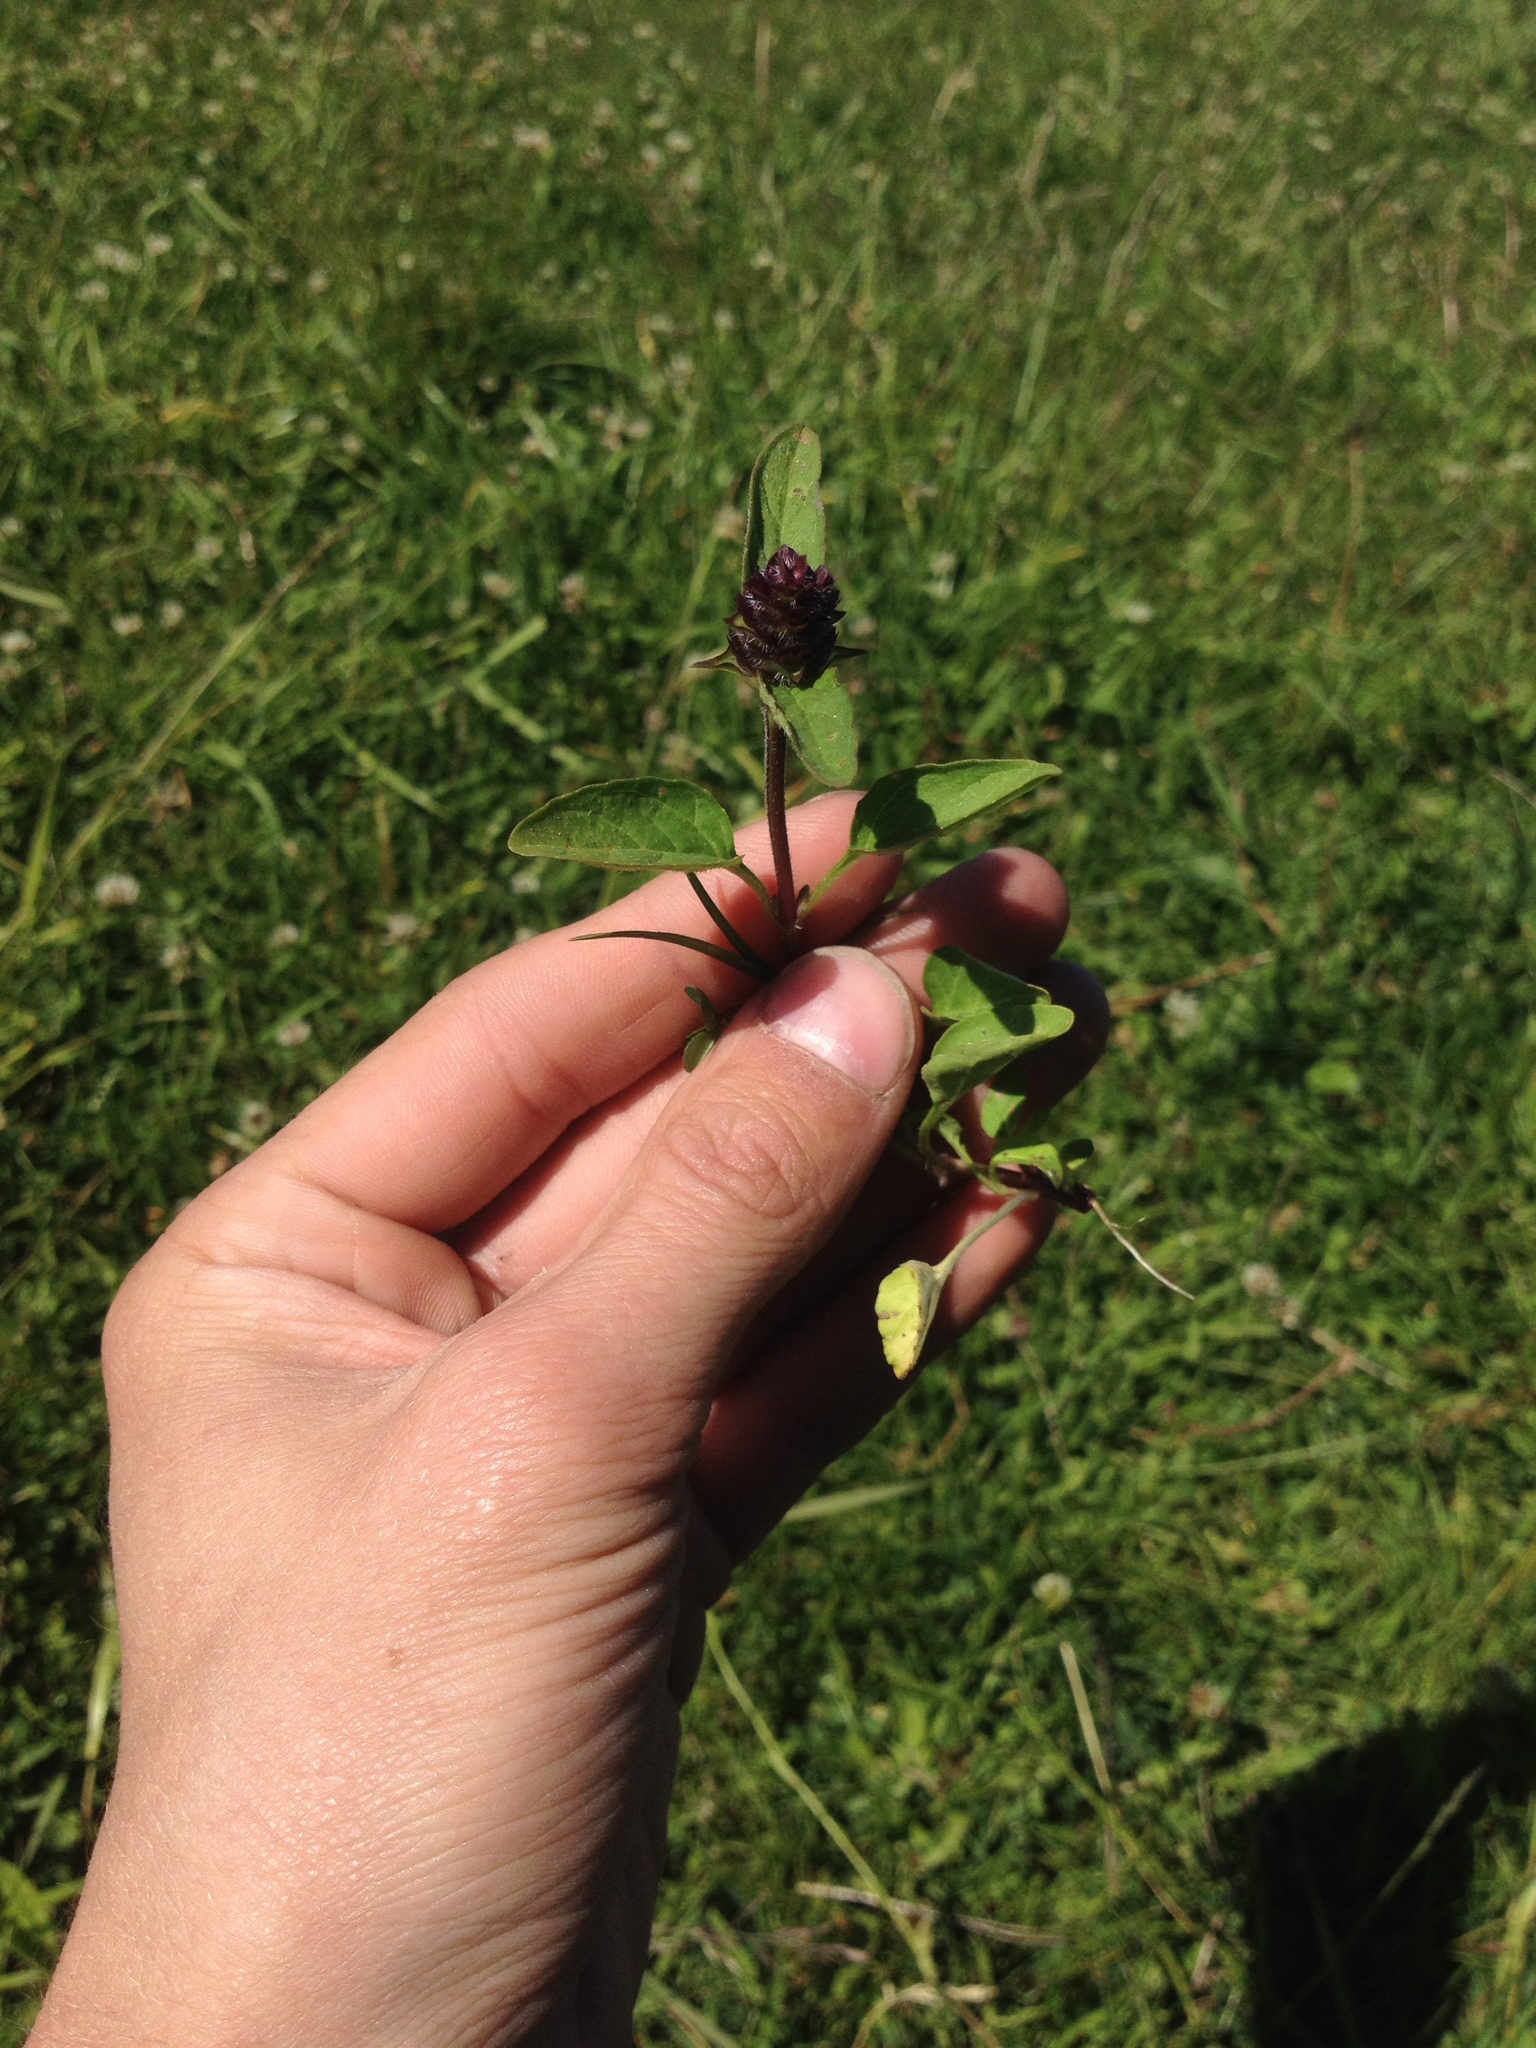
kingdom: Plantae
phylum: Tracheophyta
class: Magnoliopsida
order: Lamiales
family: Lamiaceae
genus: Prunella
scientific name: Prunella vulgaris
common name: Heal-all
